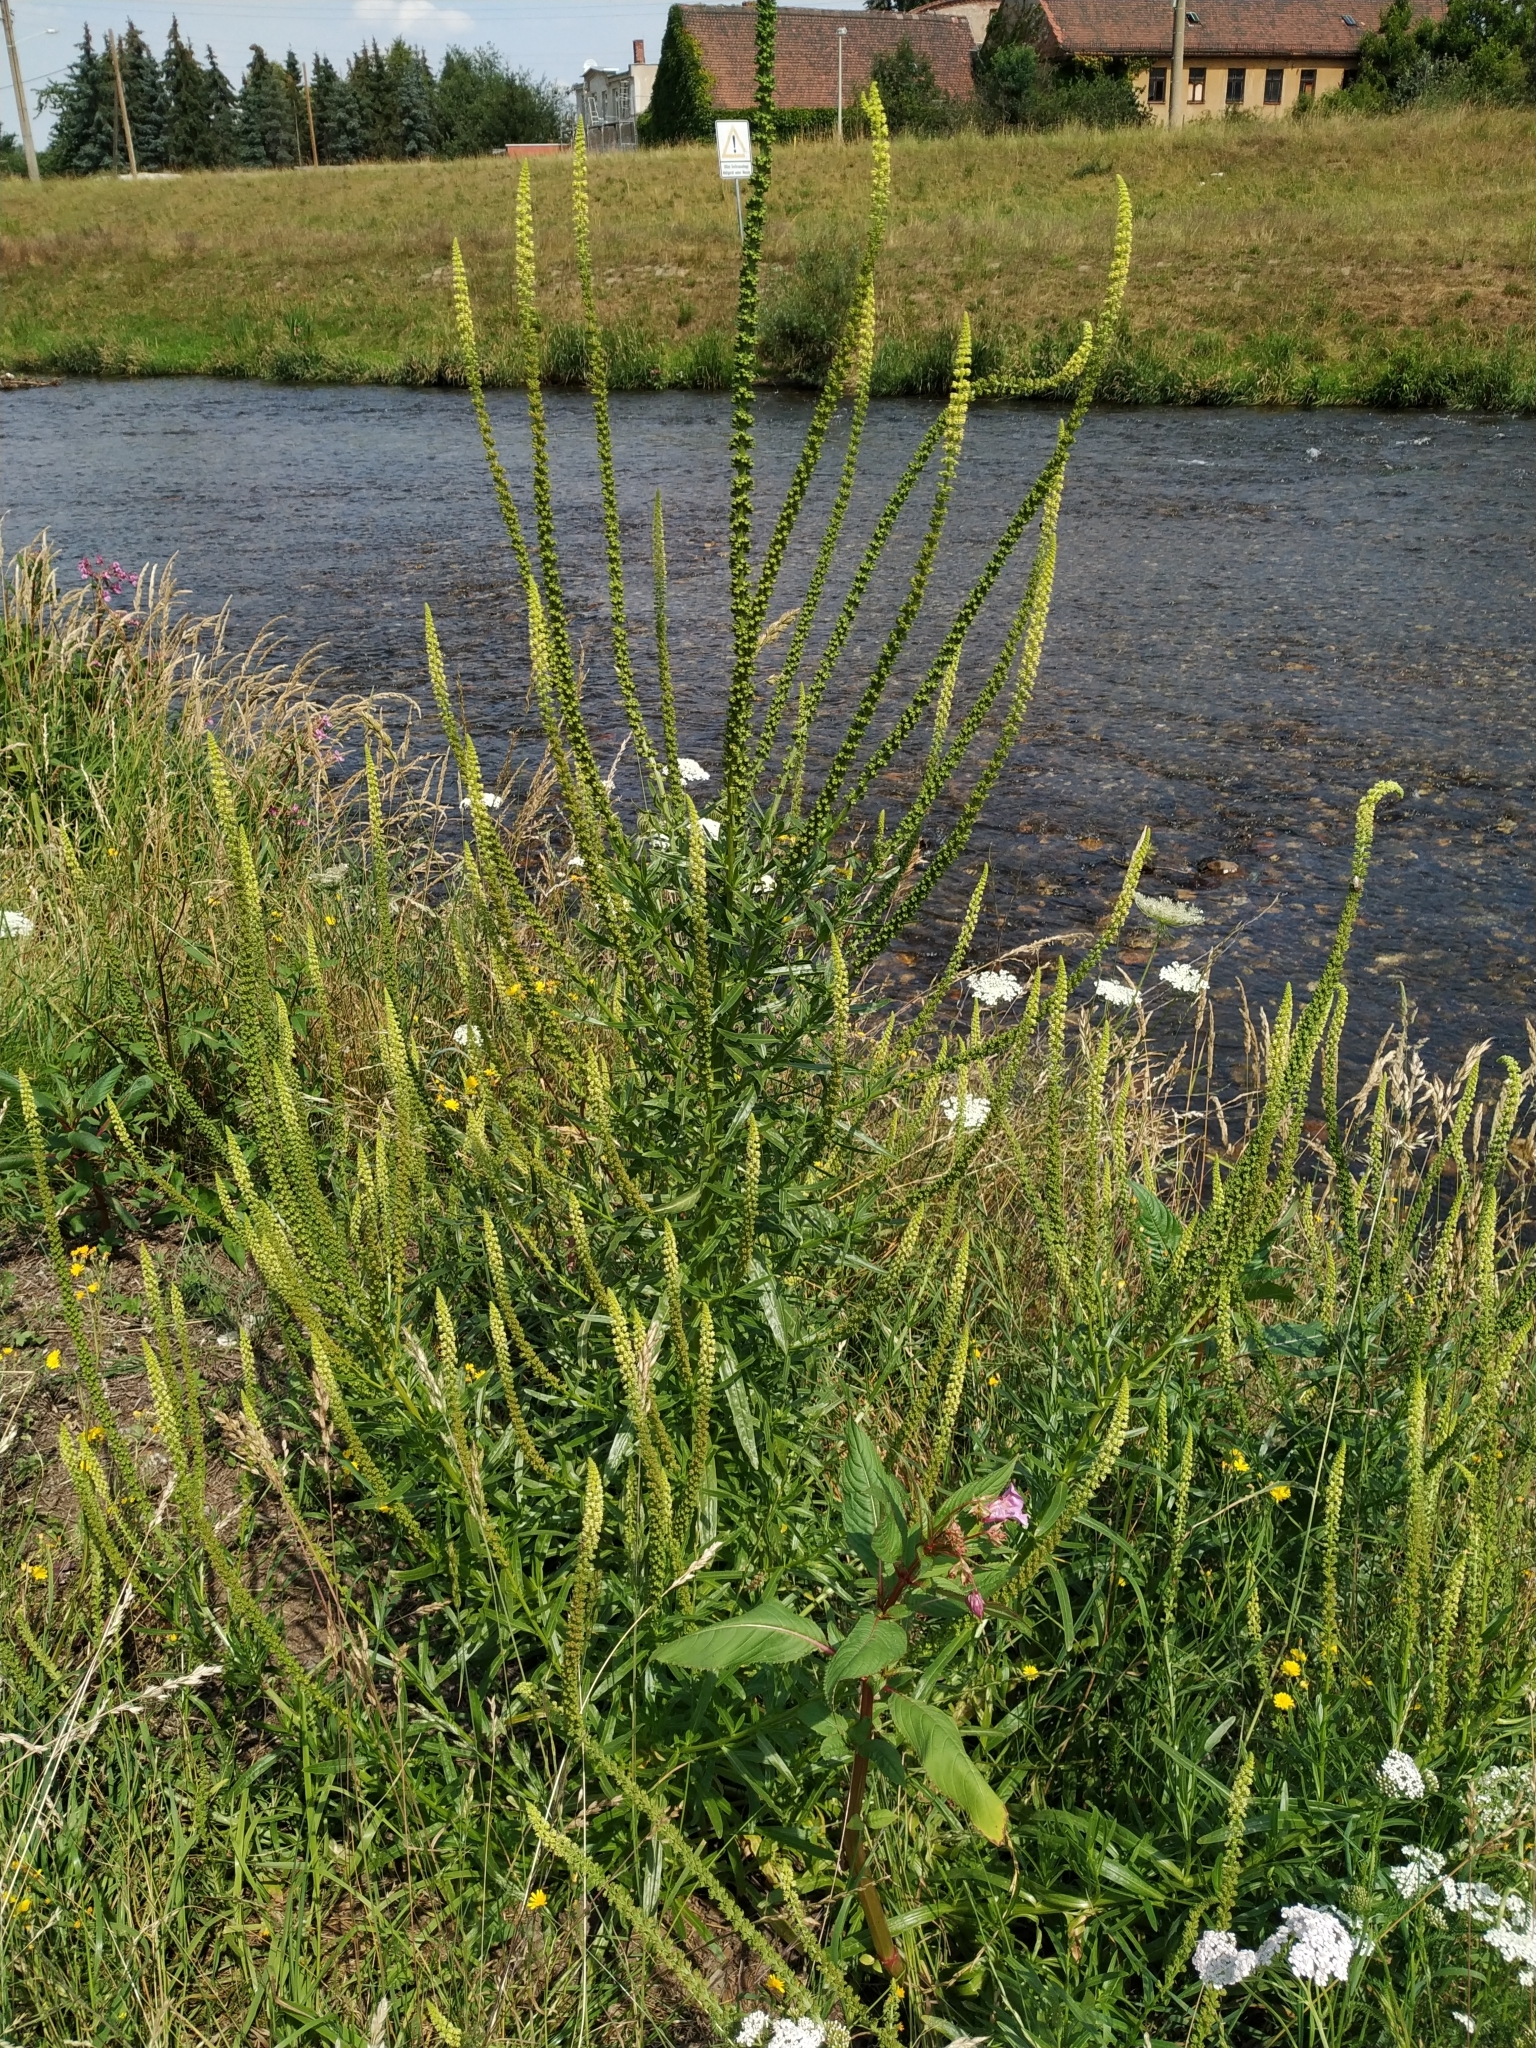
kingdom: Plantae
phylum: Tracheophyta
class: Magnoliopsida
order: Brassicales
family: Resedaceae
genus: Reseda
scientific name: Reseda luteola
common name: Weld
